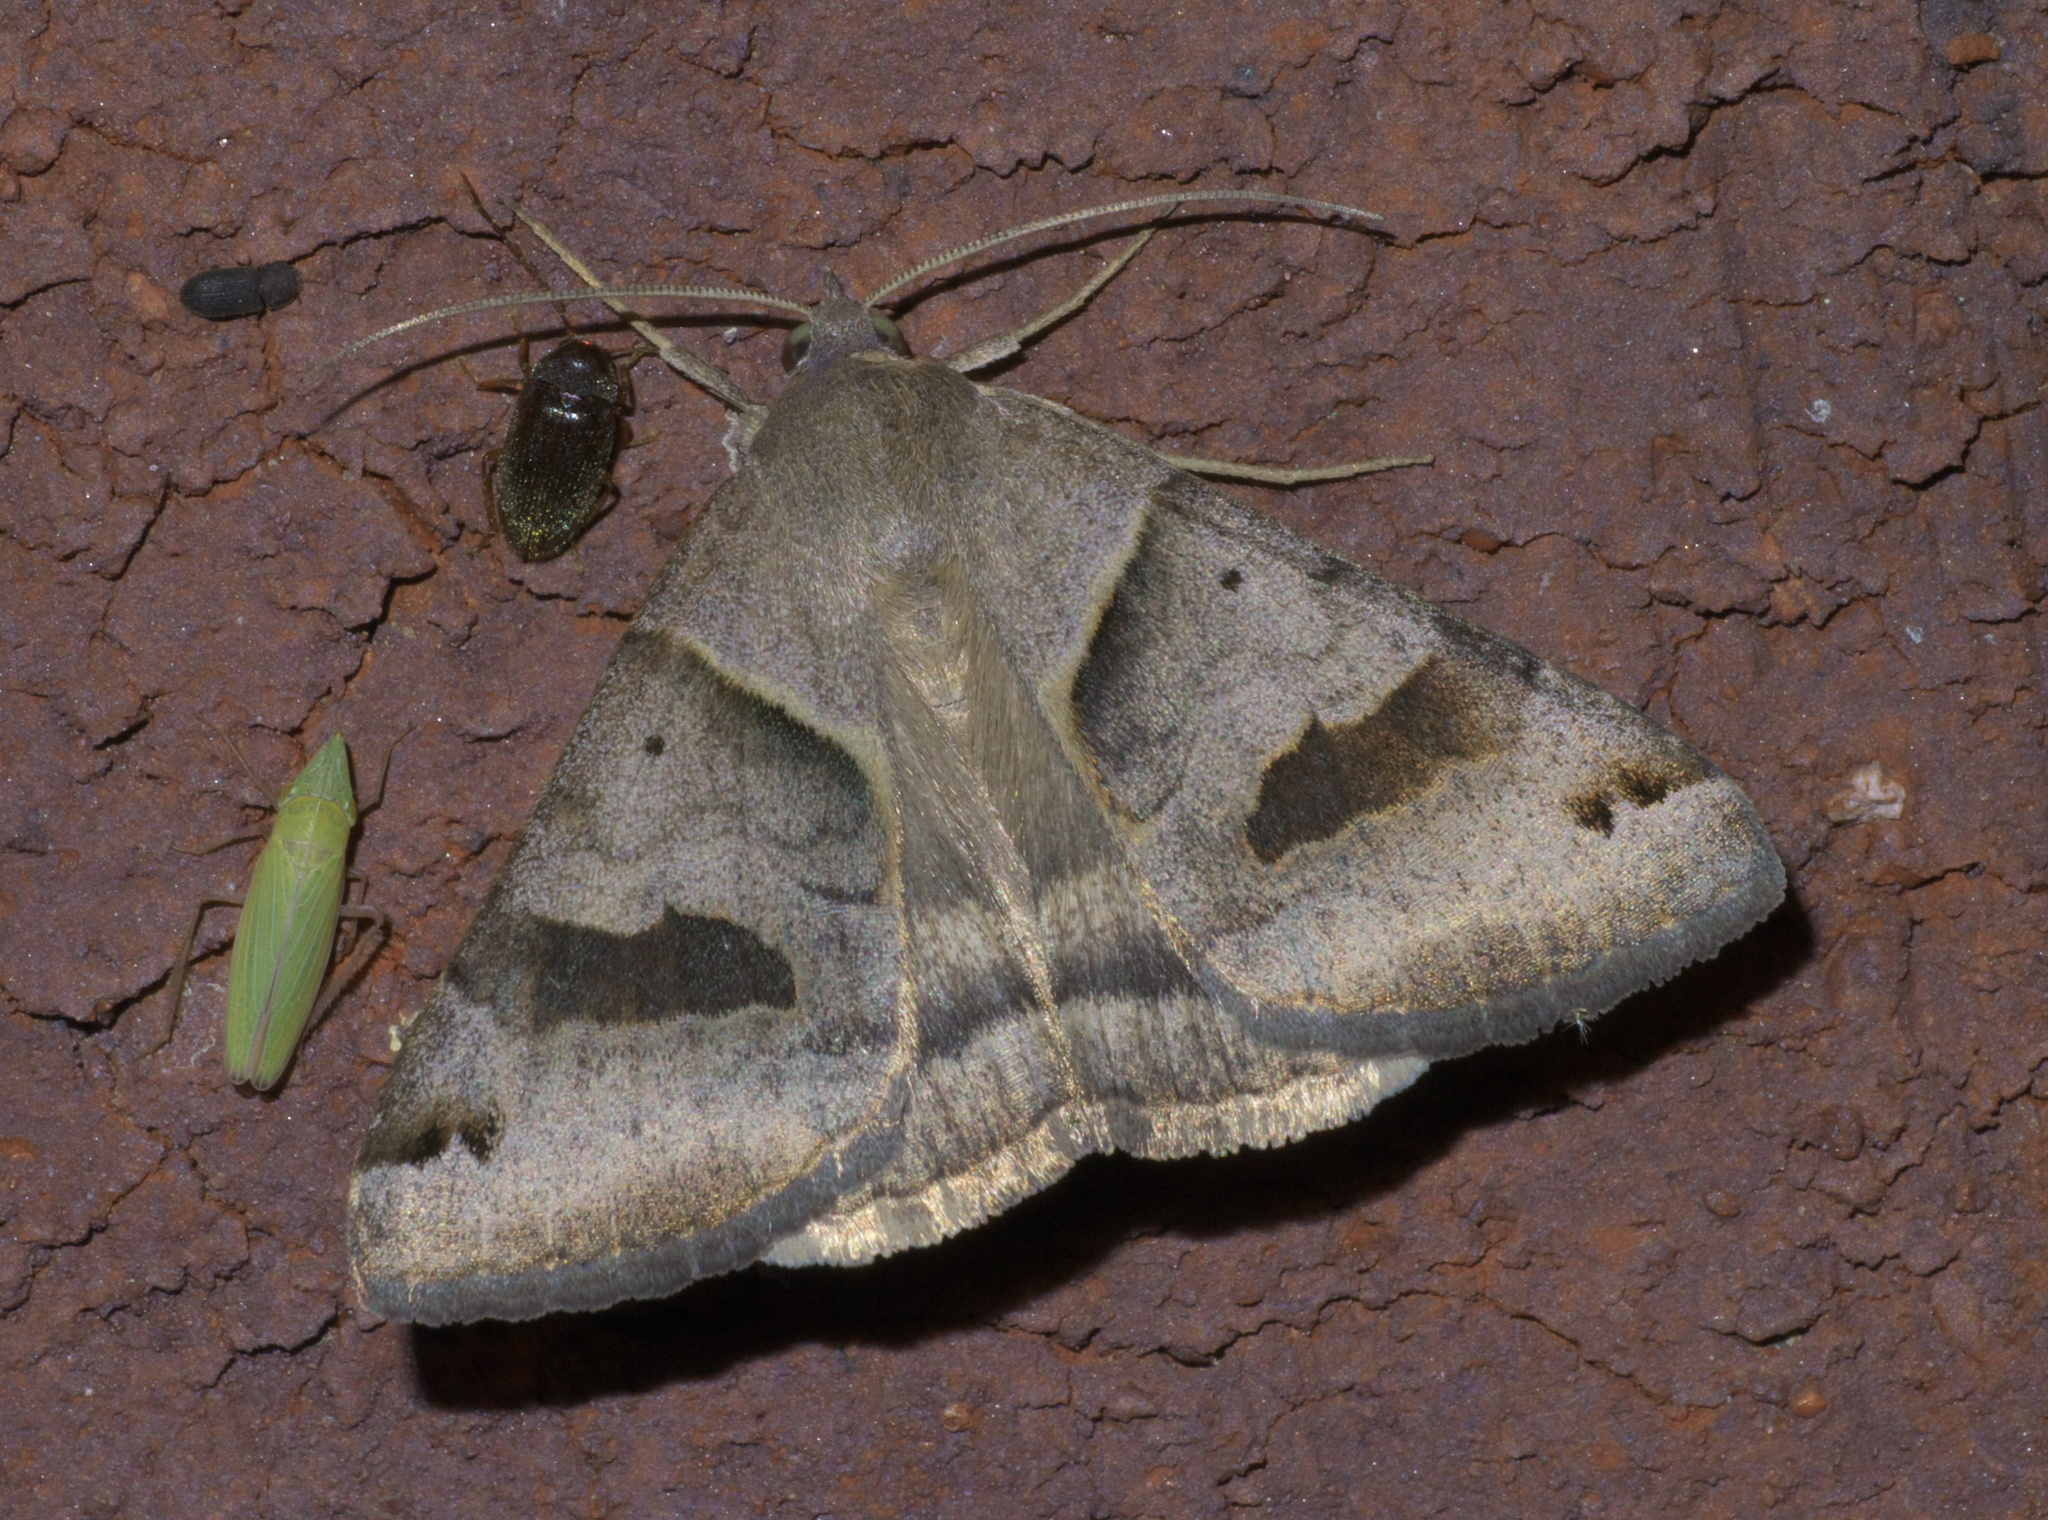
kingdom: Animalia
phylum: Arthropoda
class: Insecta
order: Lepidoptera
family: Erebidae
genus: Caenurgina
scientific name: Caenurgina erechtea
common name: Forage looper moth
